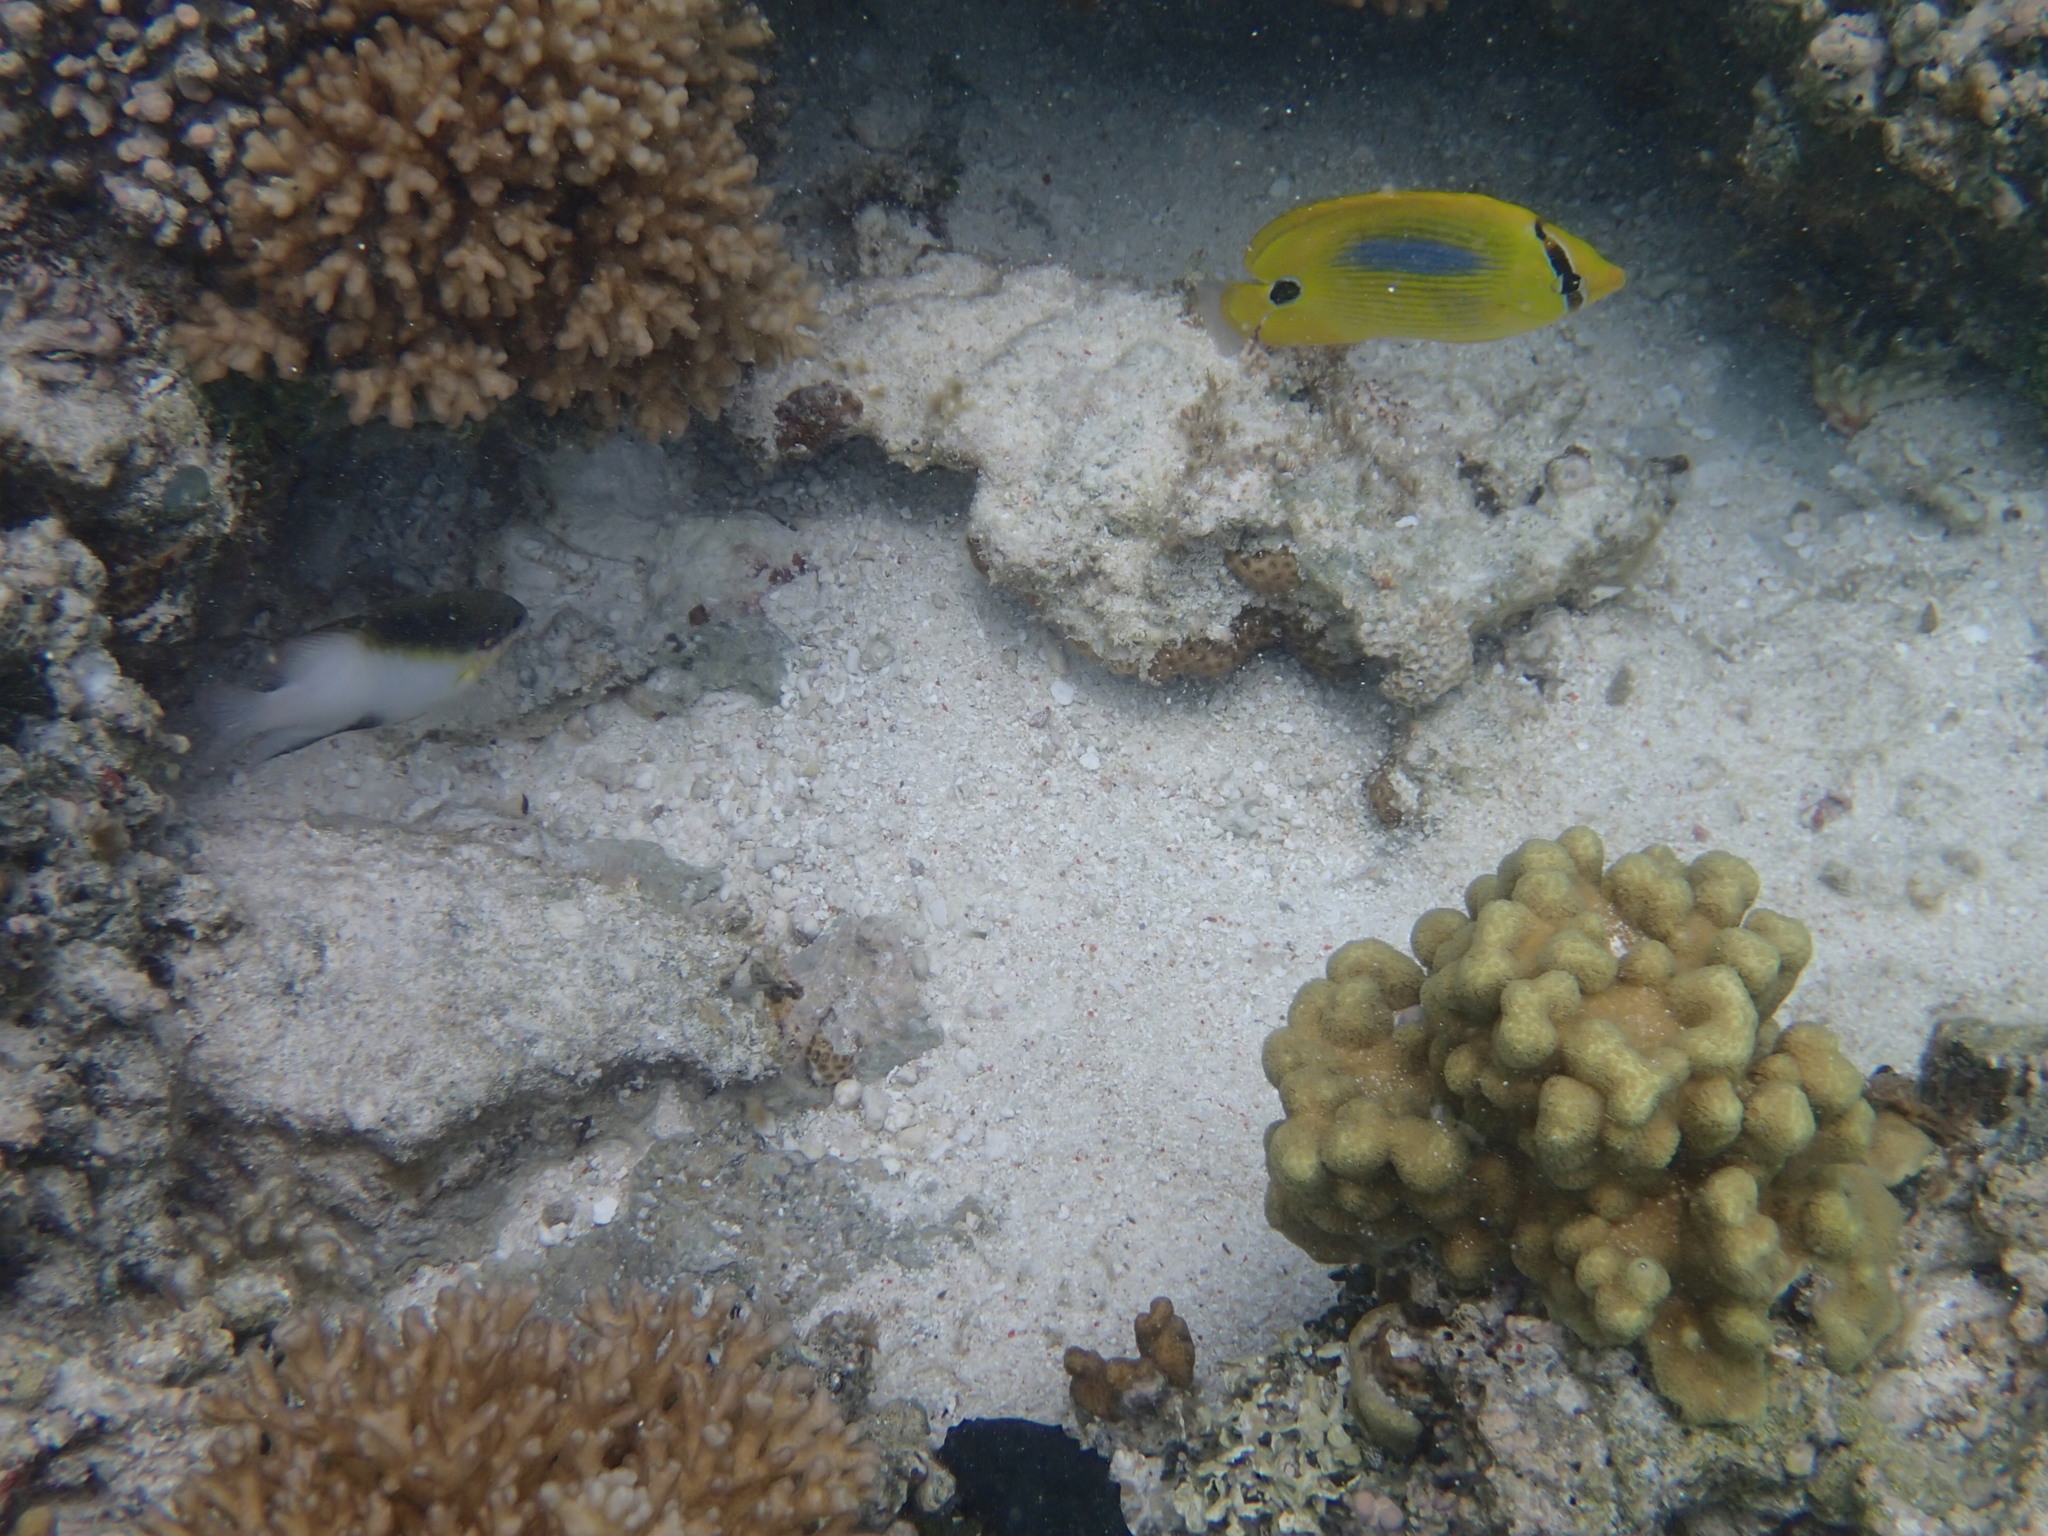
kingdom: Animalia
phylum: Chordata
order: Perciformes
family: Chaetodontidae
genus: Chaetodon
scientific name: Chaetodon plebeius
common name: Bluespot butterflyfish
